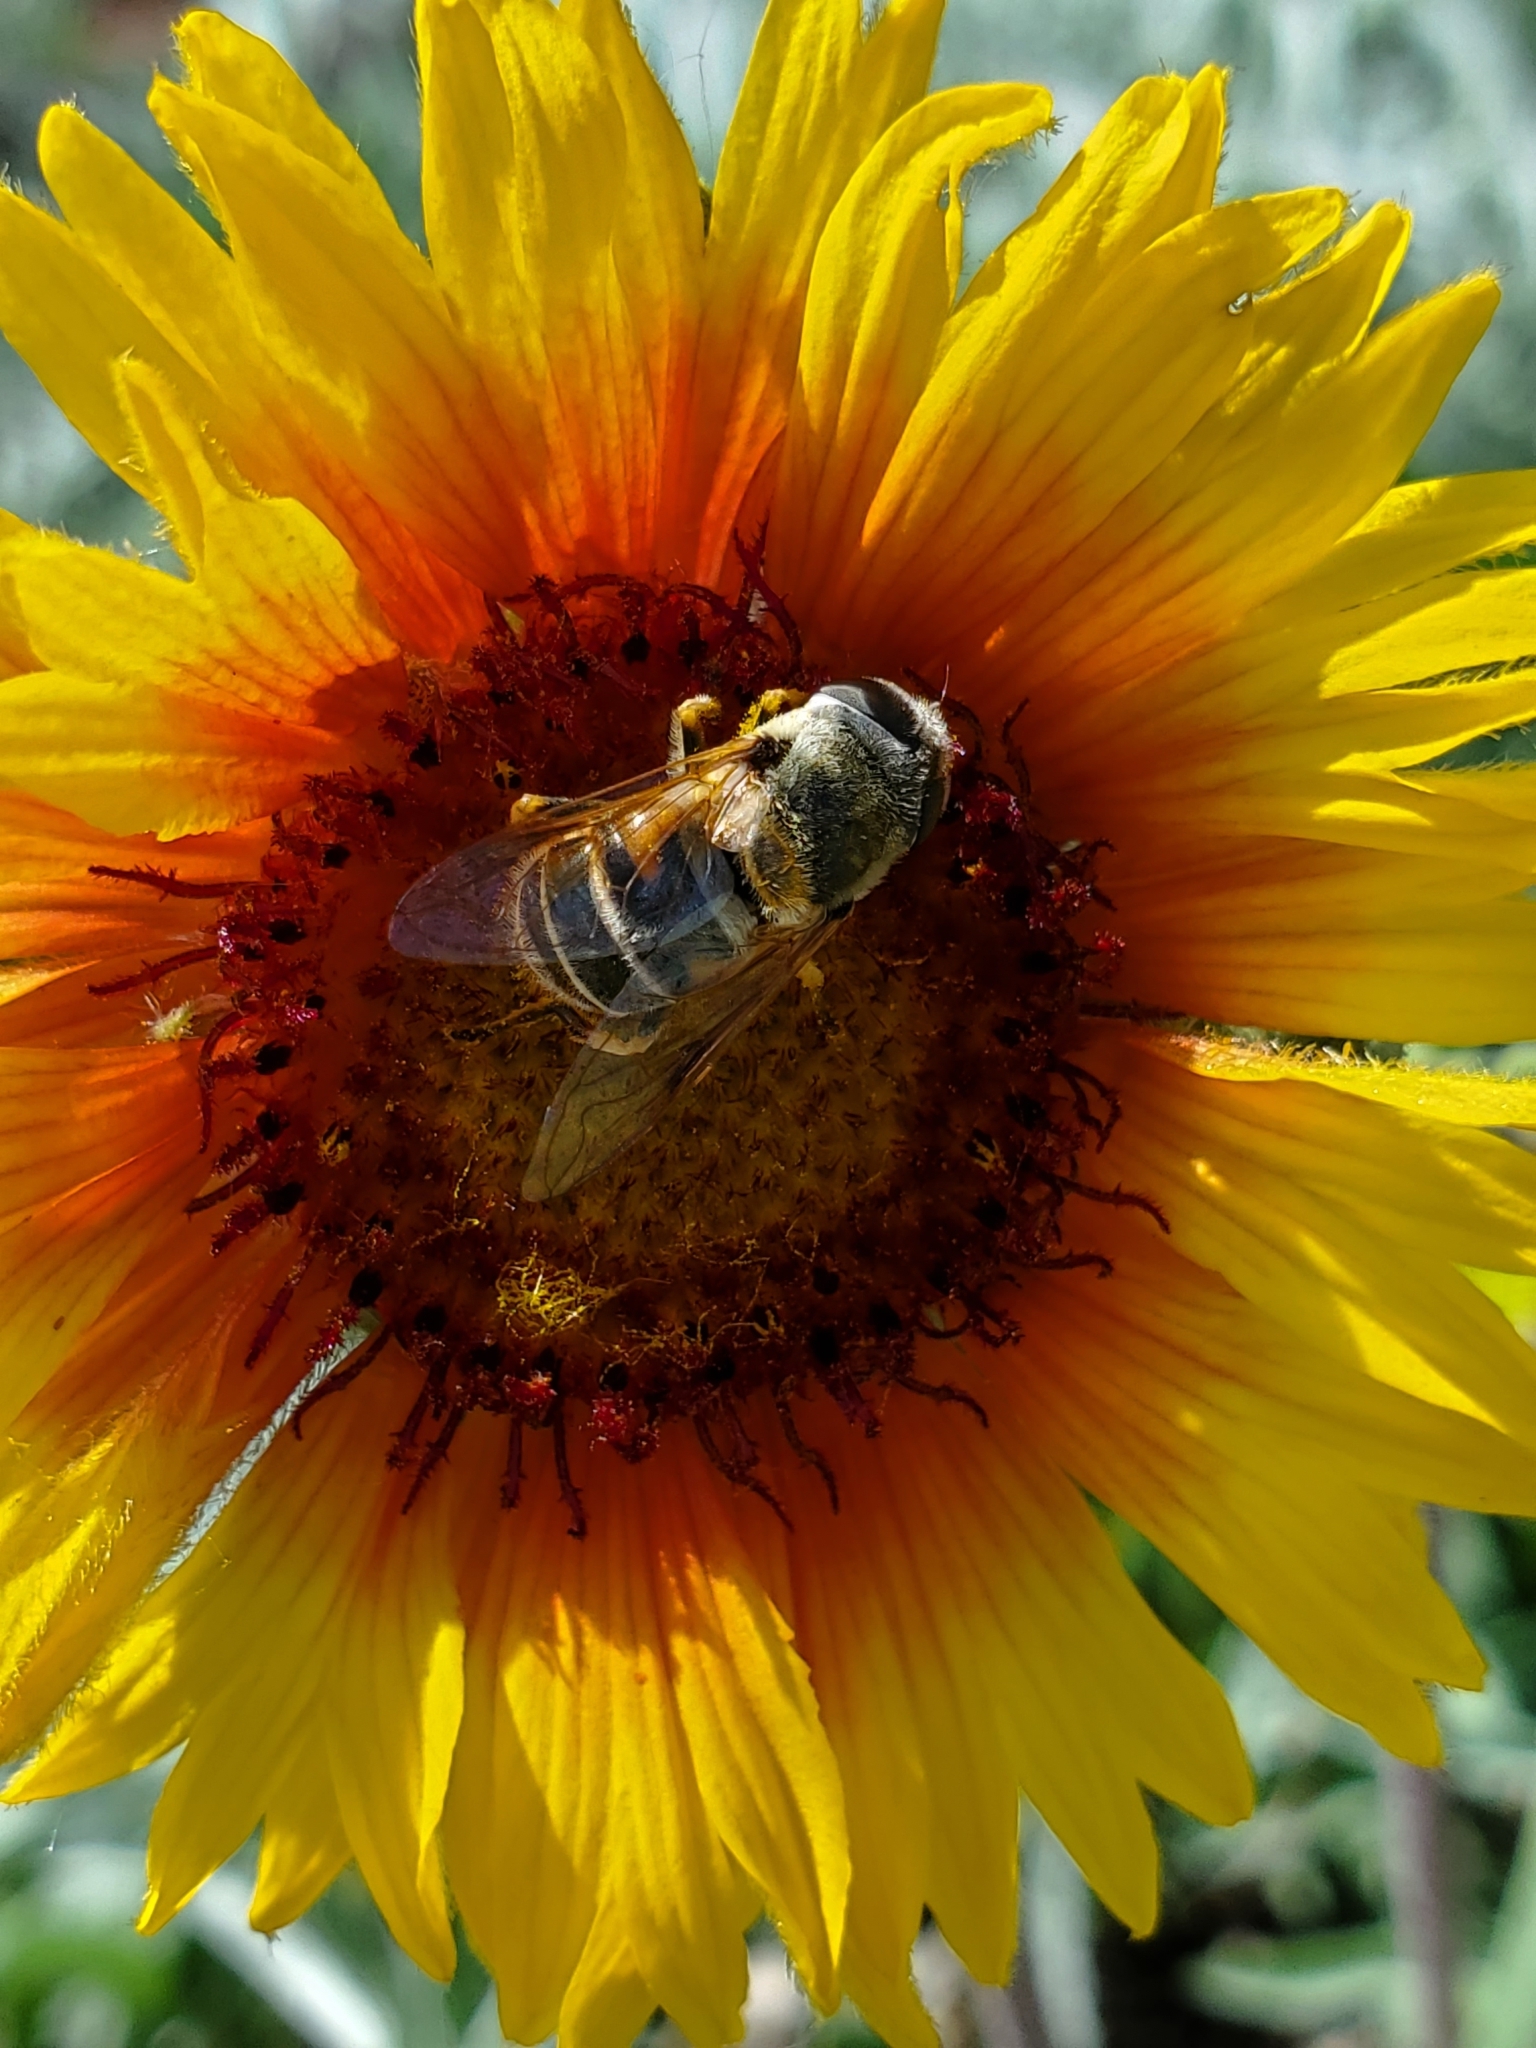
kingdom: Animalia
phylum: Arthropoda
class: Insecta
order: Diptera
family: Syrphidae
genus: Eristalis
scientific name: Eristalis stipator
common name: Yellow-shouldered drone fly
